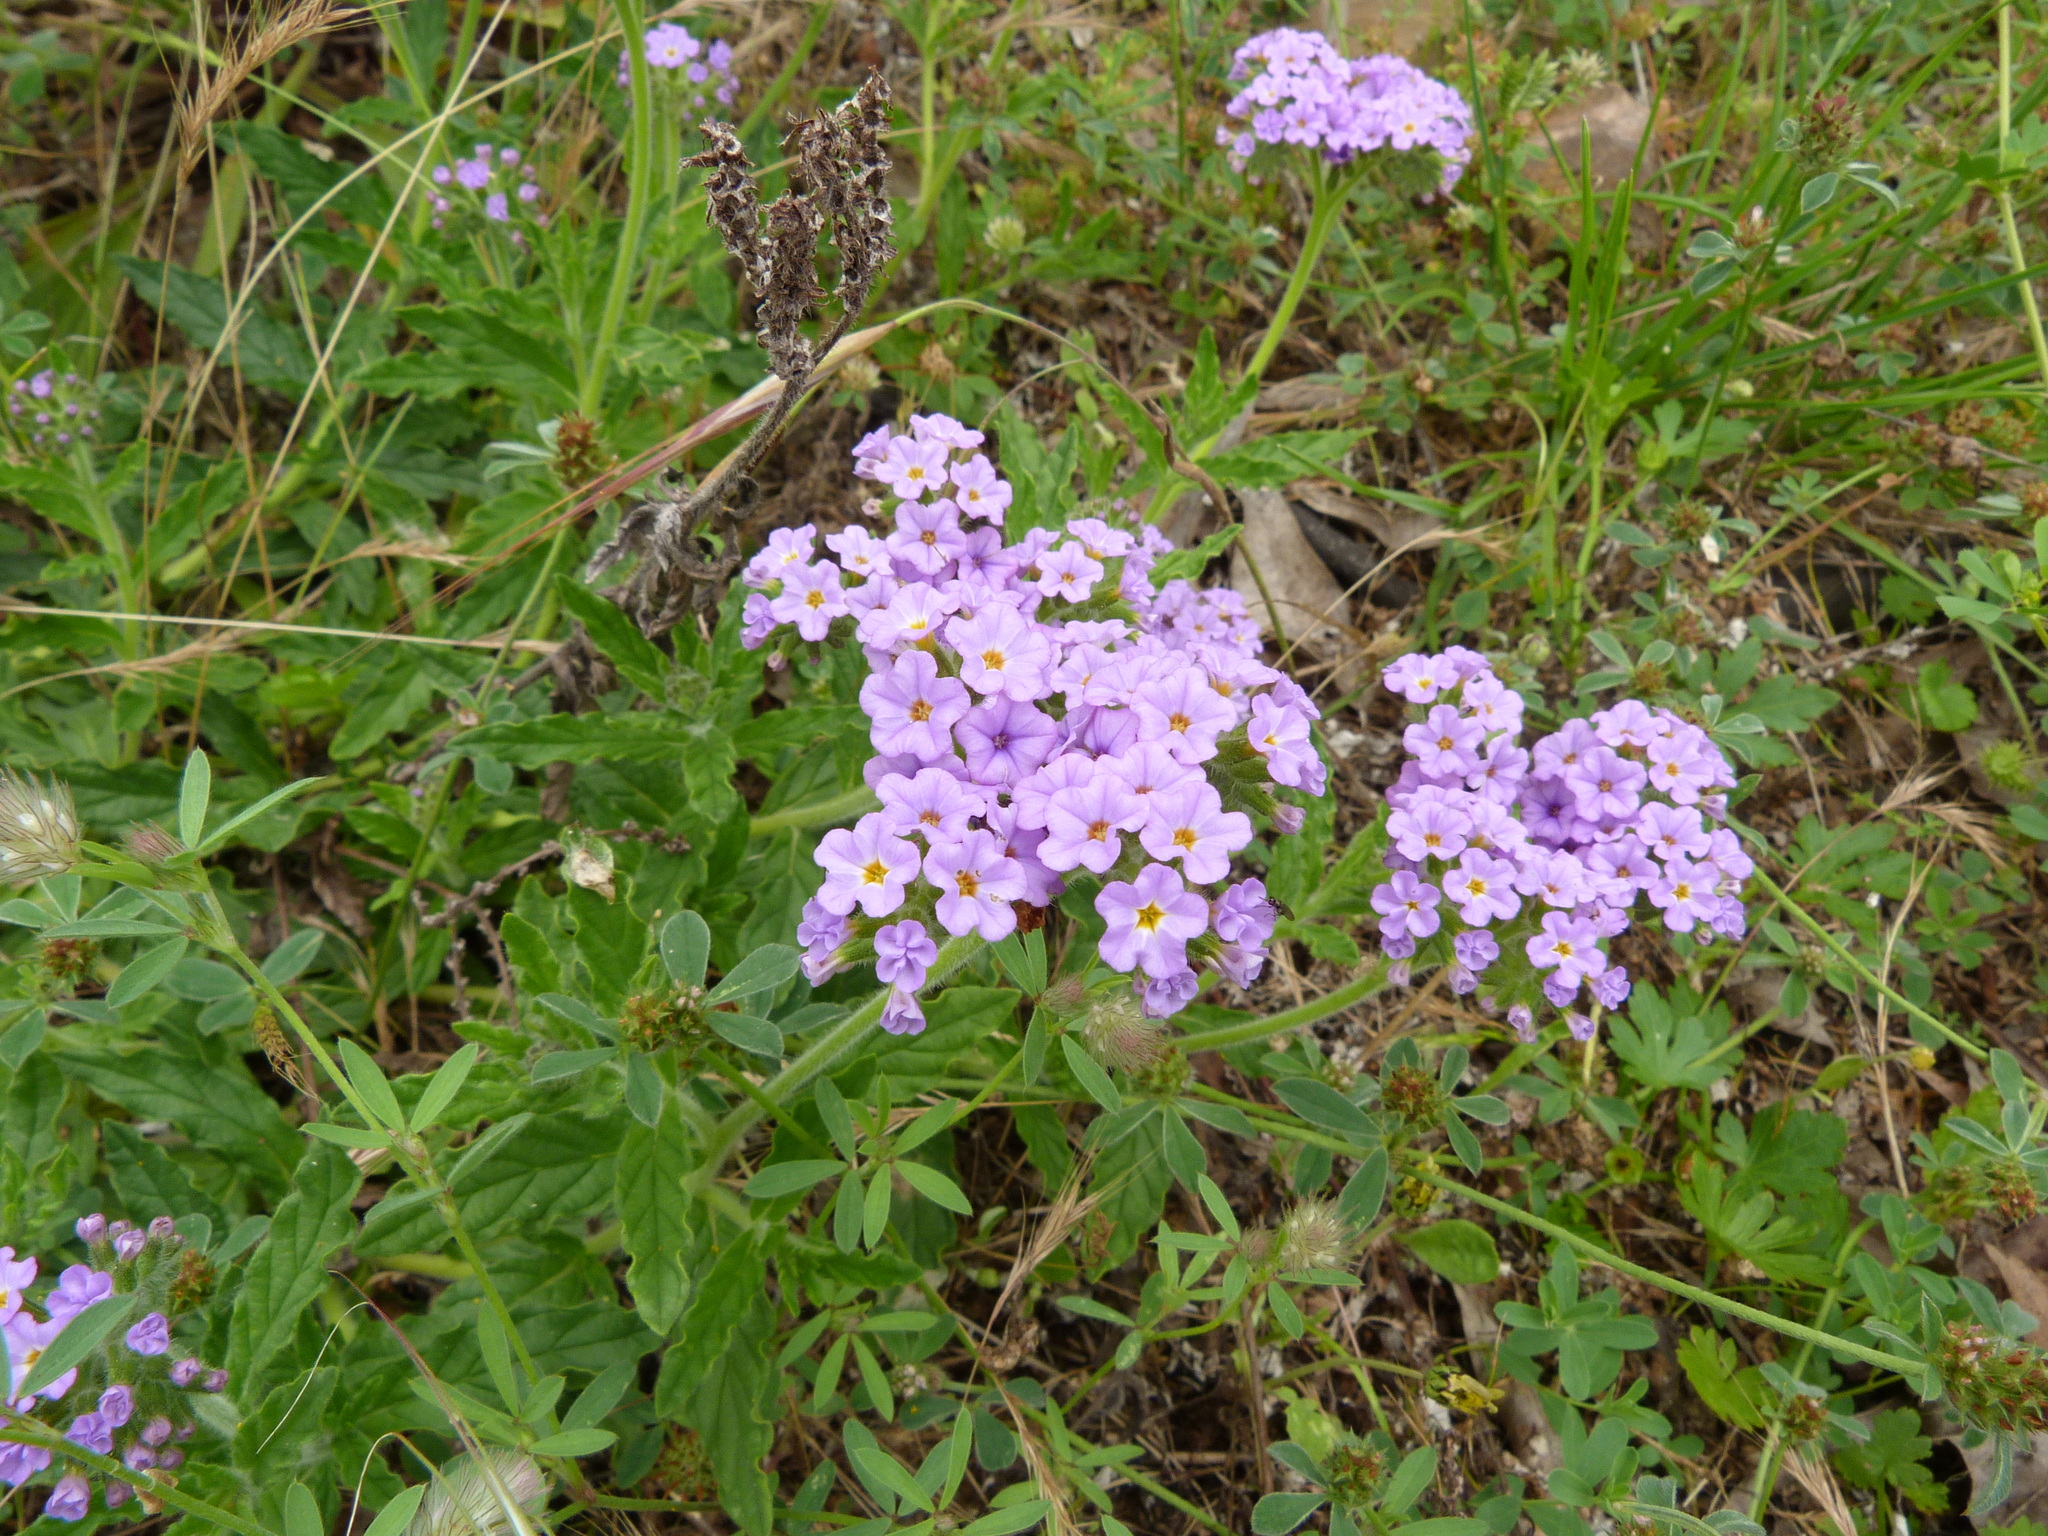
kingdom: Plantae
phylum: Tracheophyta
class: Magnoliopsida
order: Boraginales
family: Heliotropiaceae
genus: Heliotropium
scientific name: Heliotropium amplexicaule
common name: Clasping heliotrope
